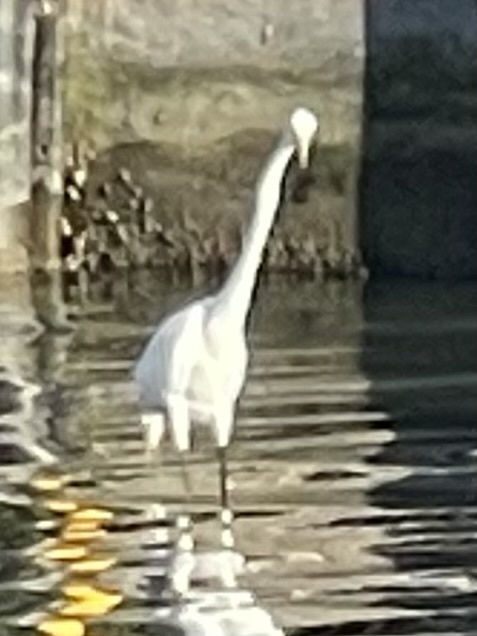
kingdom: Animalia
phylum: Chordata
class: Aves
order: Pelecaniformes
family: Ardeidae
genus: Ardea
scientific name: Ardea alba
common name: Great egret
